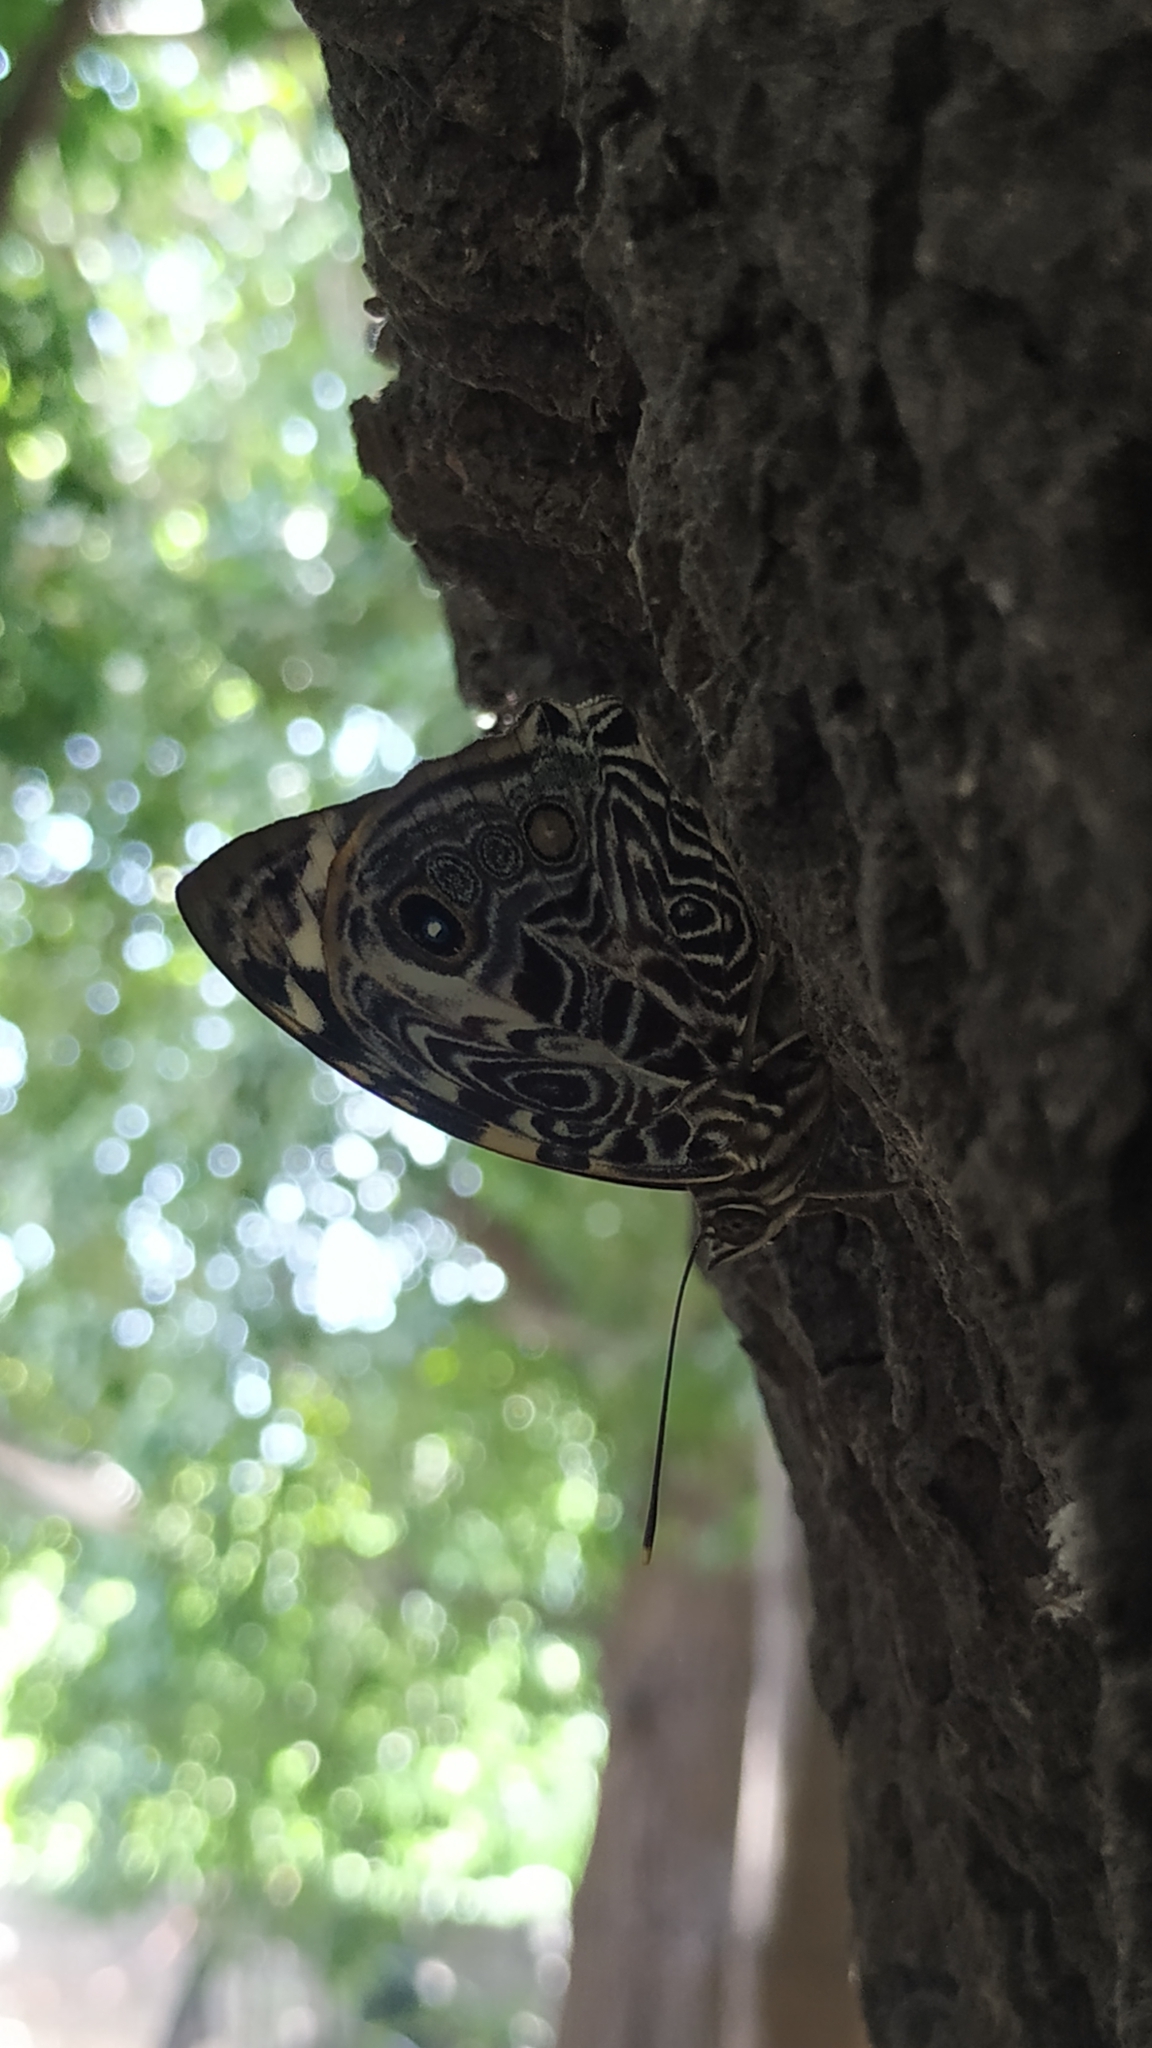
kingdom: Animalia
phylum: Arthropoda
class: Insecta
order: Lepidoptera
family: Nymphalidae
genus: Smyrna
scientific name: Smyrna blomfildia
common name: Blomfild's beauty
